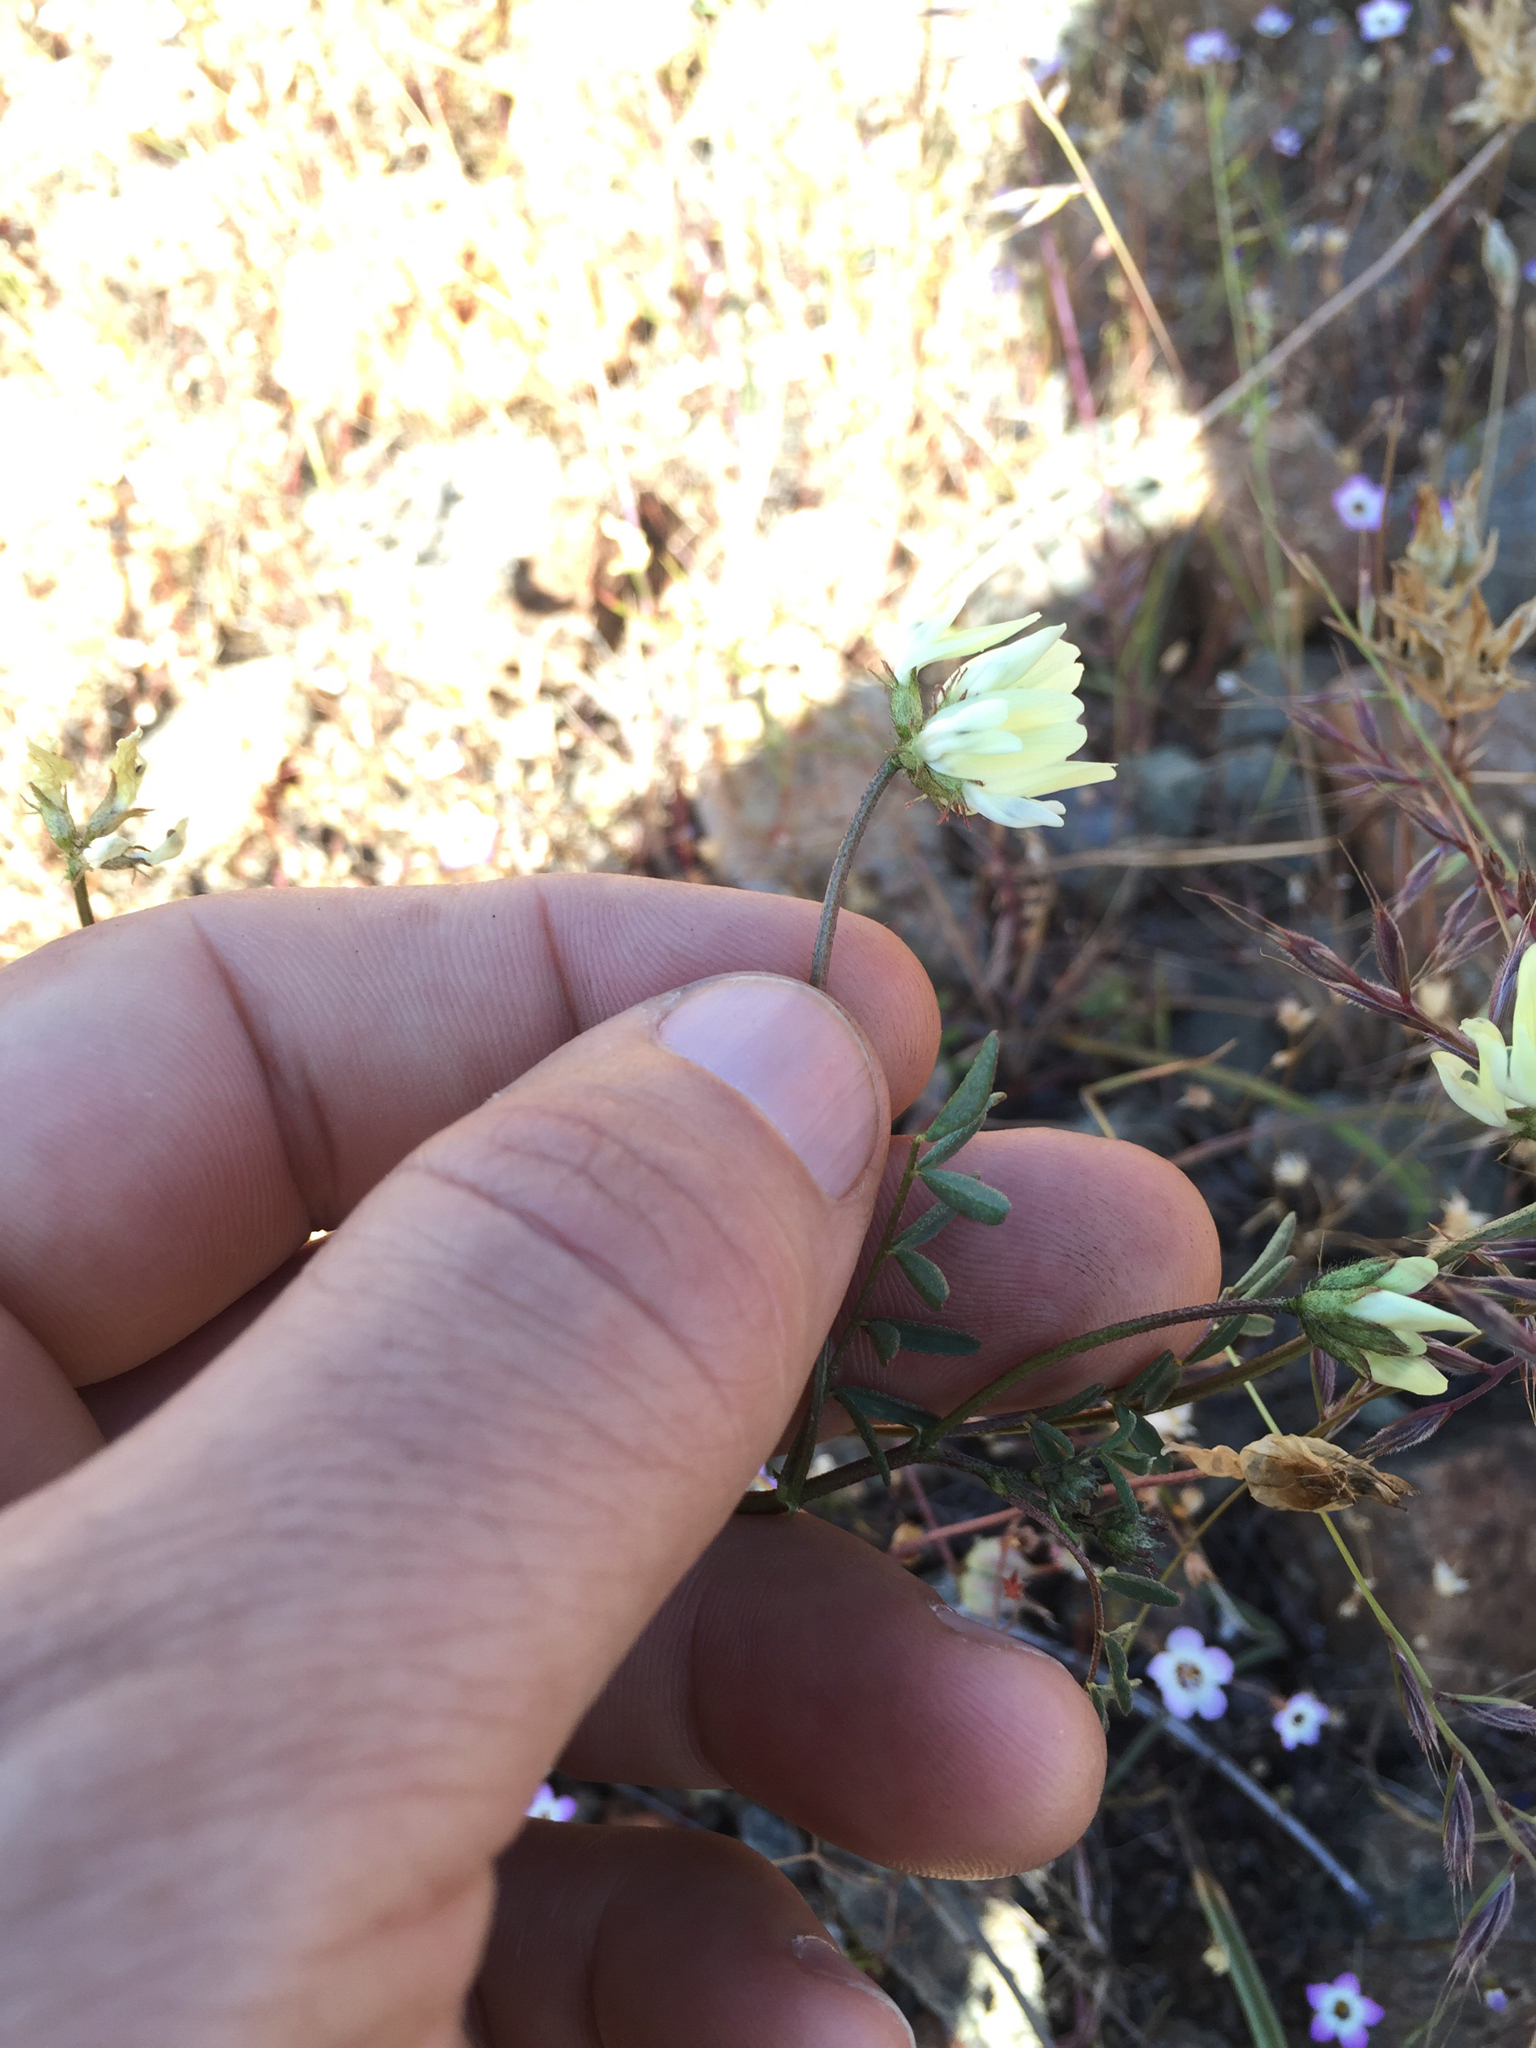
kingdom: Plantae
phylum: Tracheophyta
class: Magnoliopsida
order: Fabales
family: Fabaceae
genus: Astragalus
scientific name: Astragalus breweri
